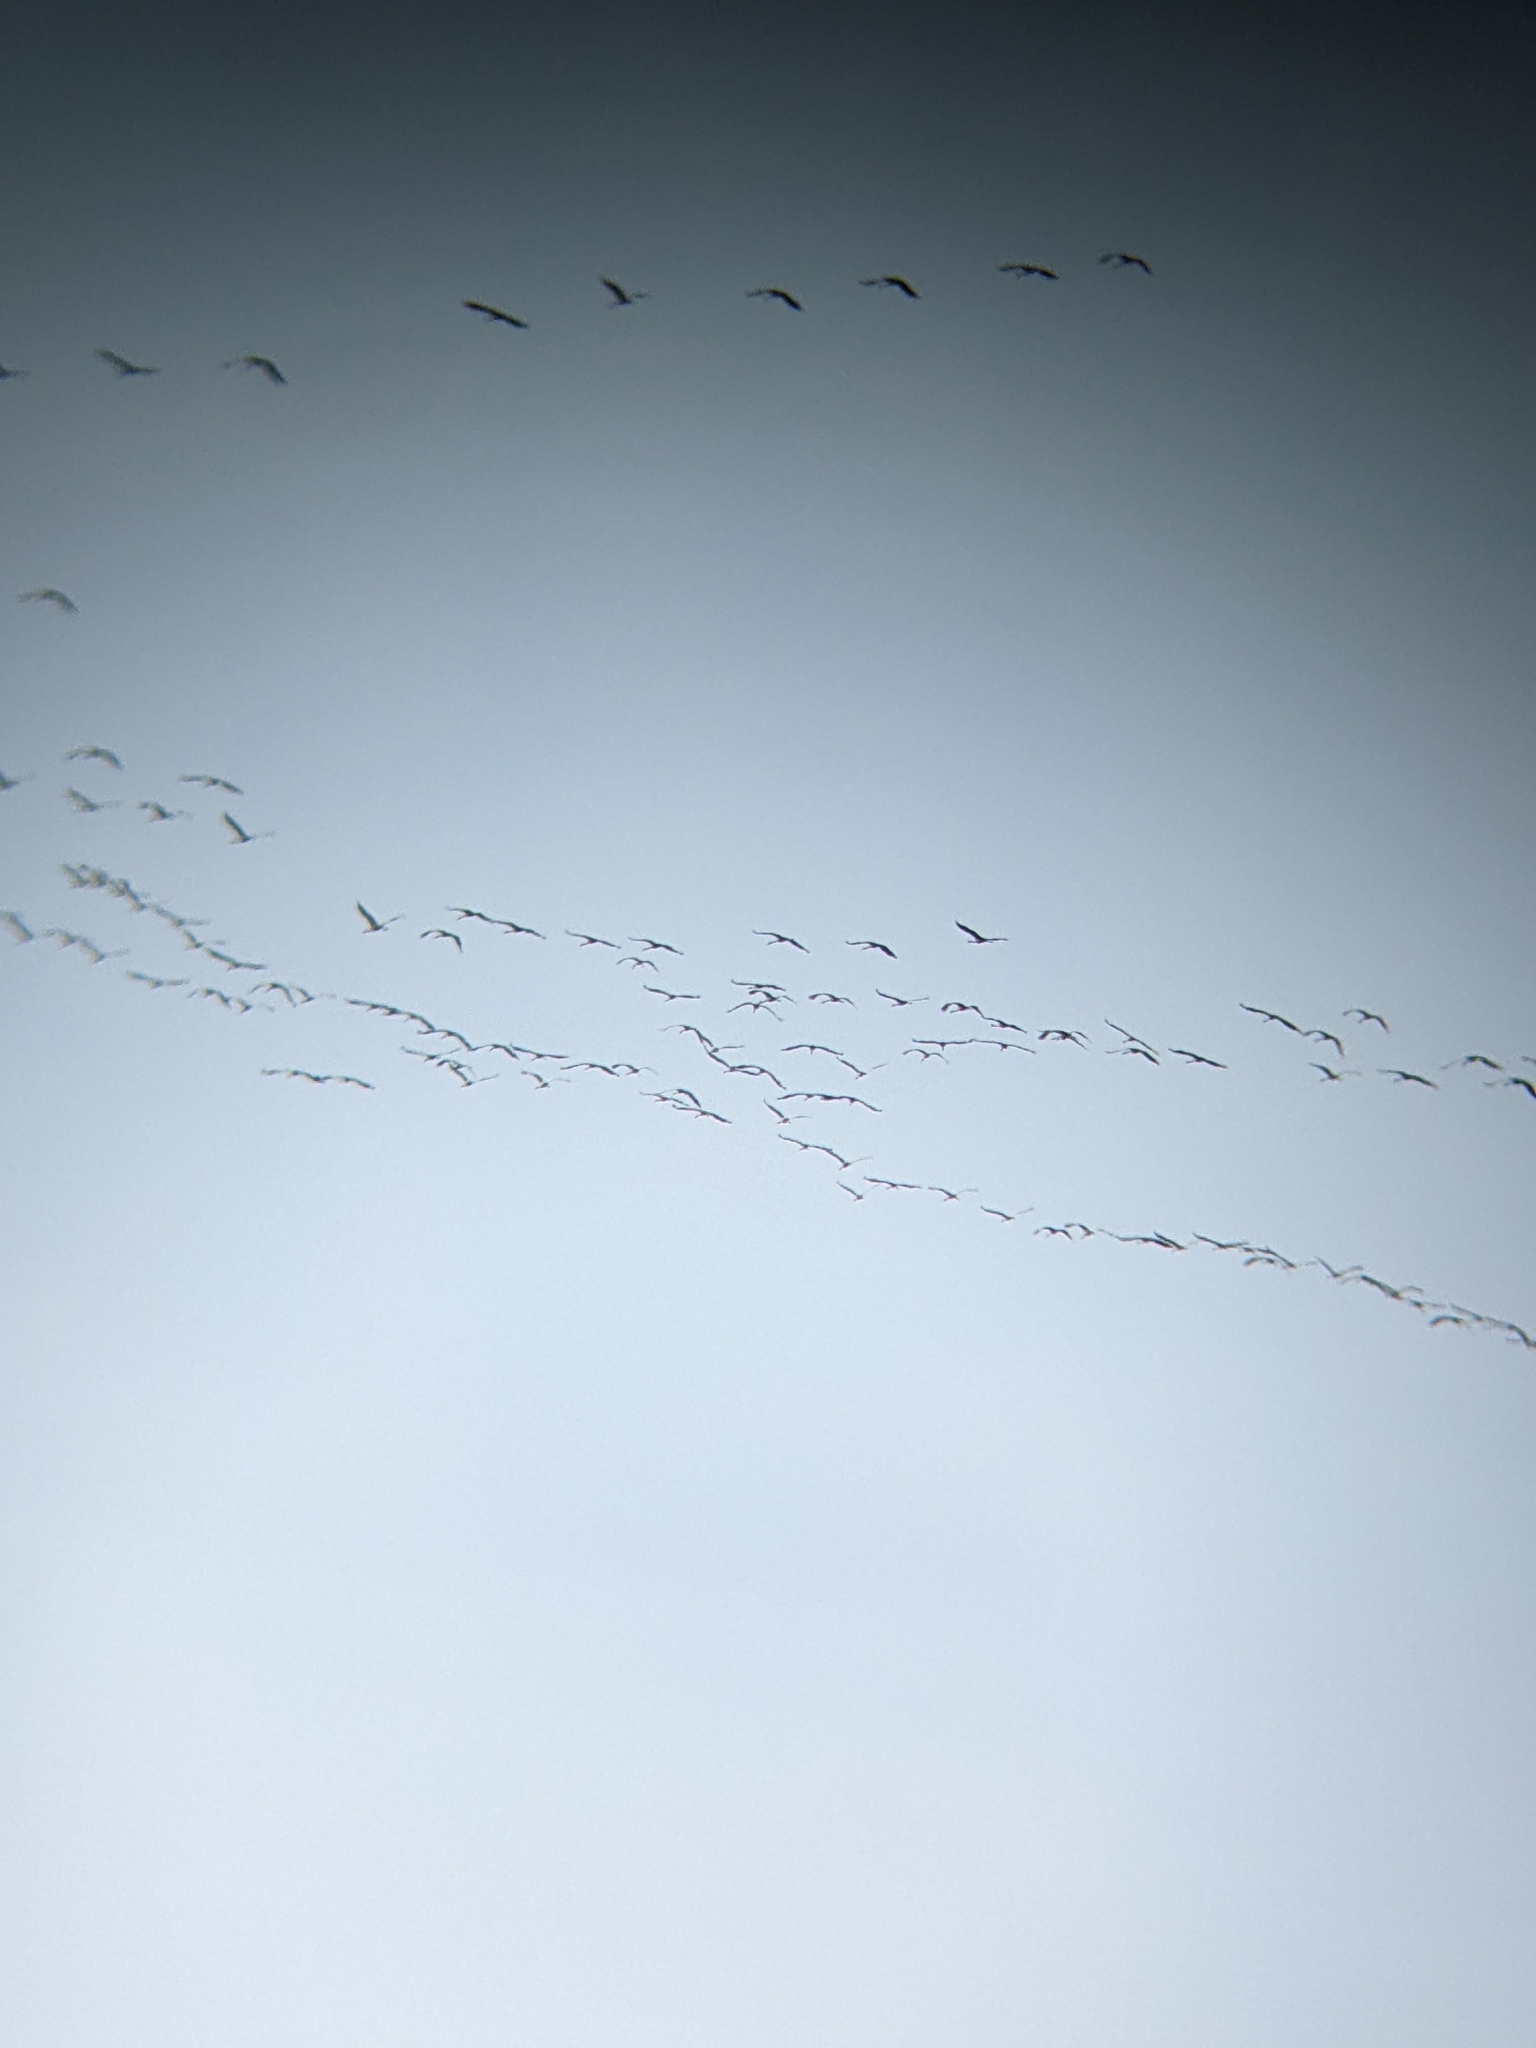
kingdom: Animalia
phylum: Chordata
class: Aves
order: Gruiformes
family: Gruidae
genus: Grus
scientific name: Grus grus
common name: Common crane
